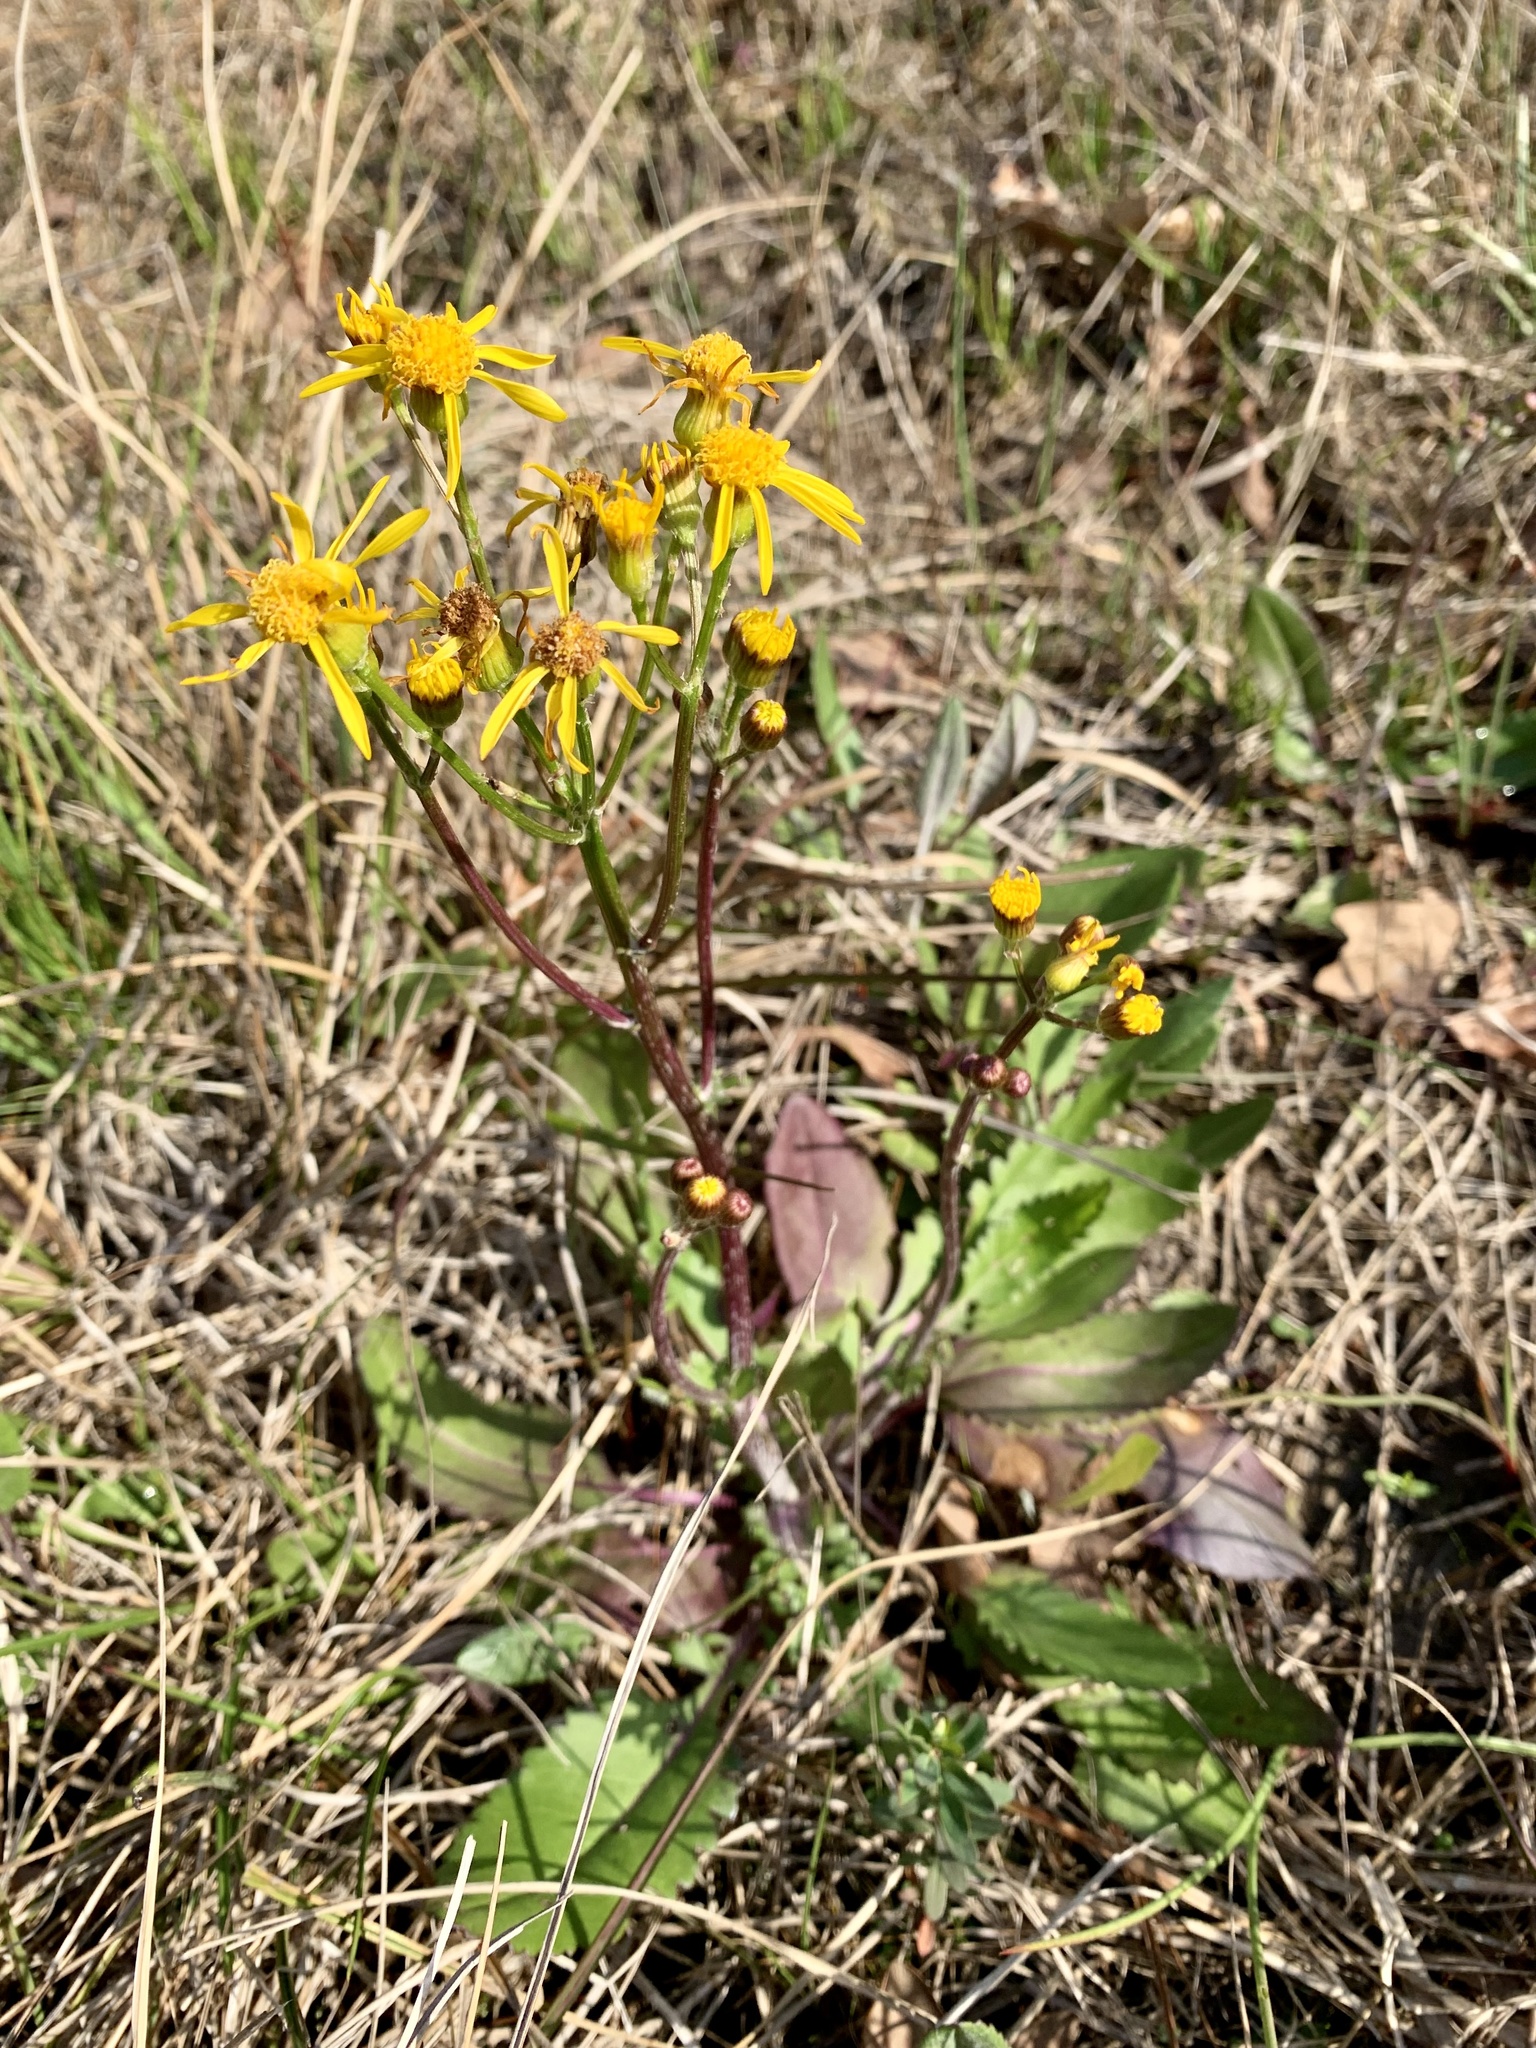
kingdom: Plantae
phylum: Tracheophyta
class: Magnoliopsida
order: Asterales
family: Asteraceae
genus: Packera
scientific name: Packera dubia
